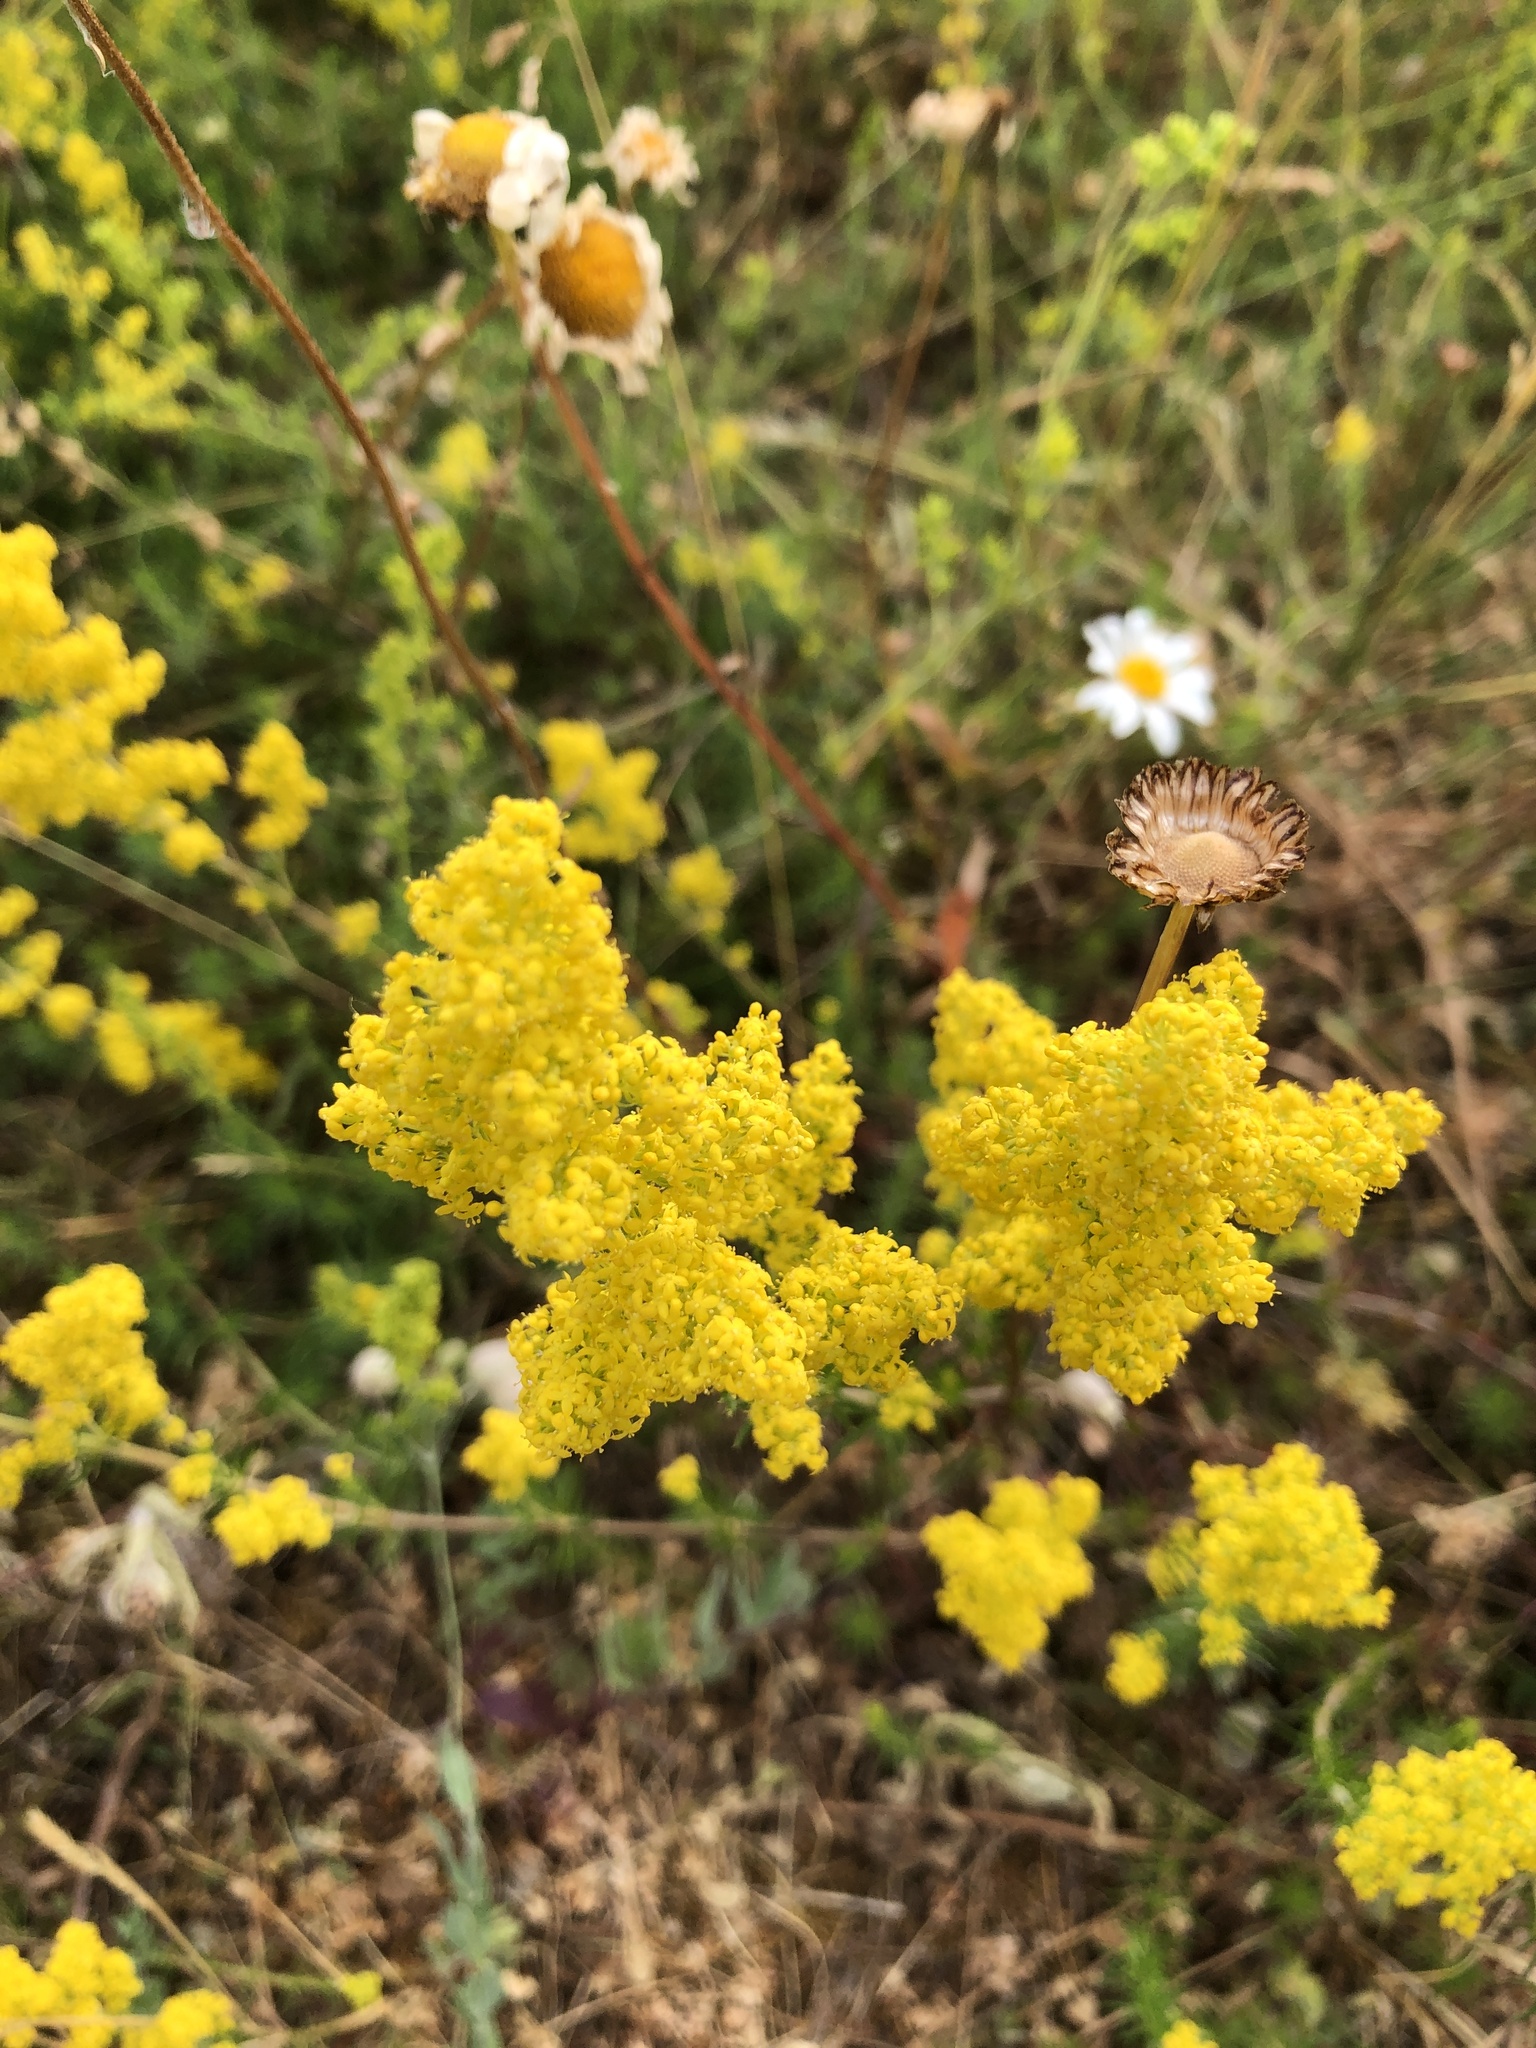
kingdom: Plantae
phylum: Tracheophyta
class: Magnoliopsida
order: Gentianales
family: Rubiaceae
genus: Galium
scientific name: Galium verum
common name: Lady's bedstraw
